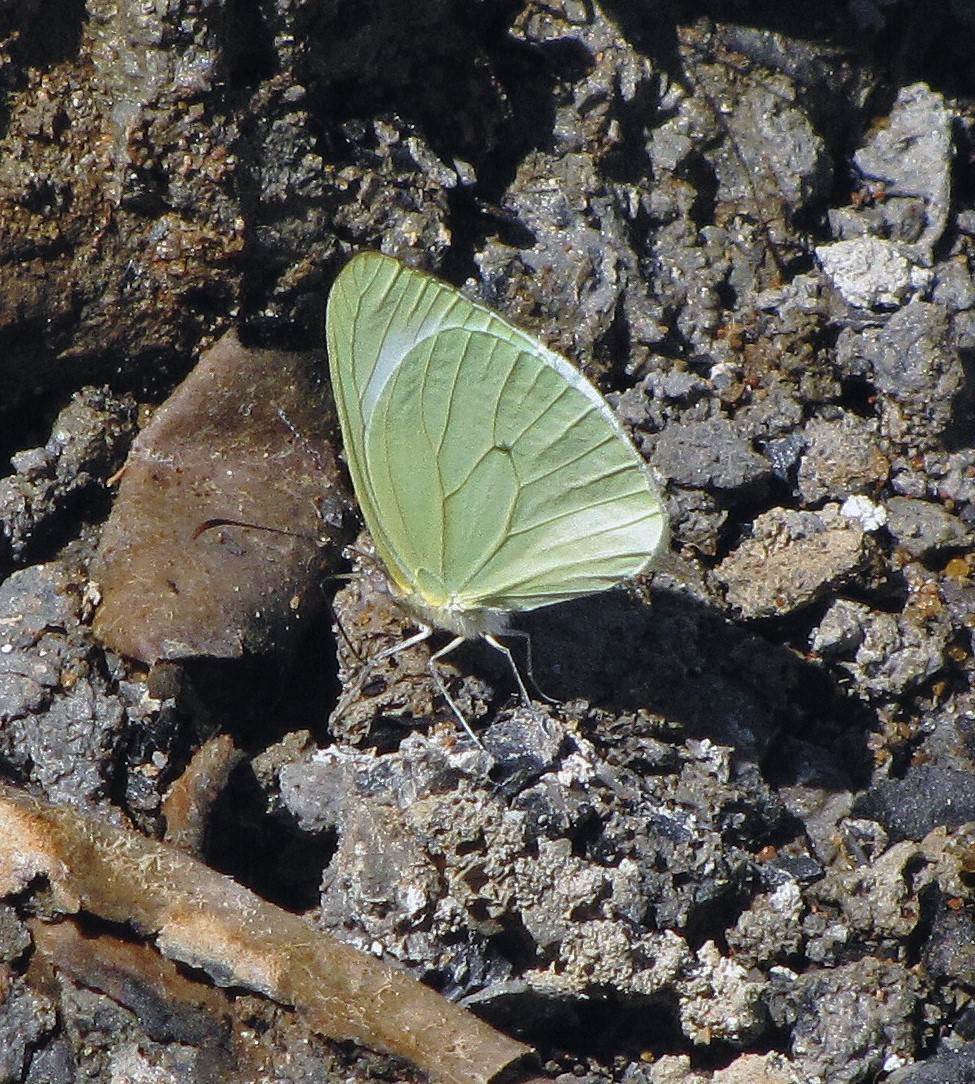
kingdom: Animalia
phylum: Arthropoda
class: Insecta
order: Lepidoptera
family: Pieridae
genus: Pseudopieris
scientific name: Pseudopieris nehemia
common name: Clean mimic-white
